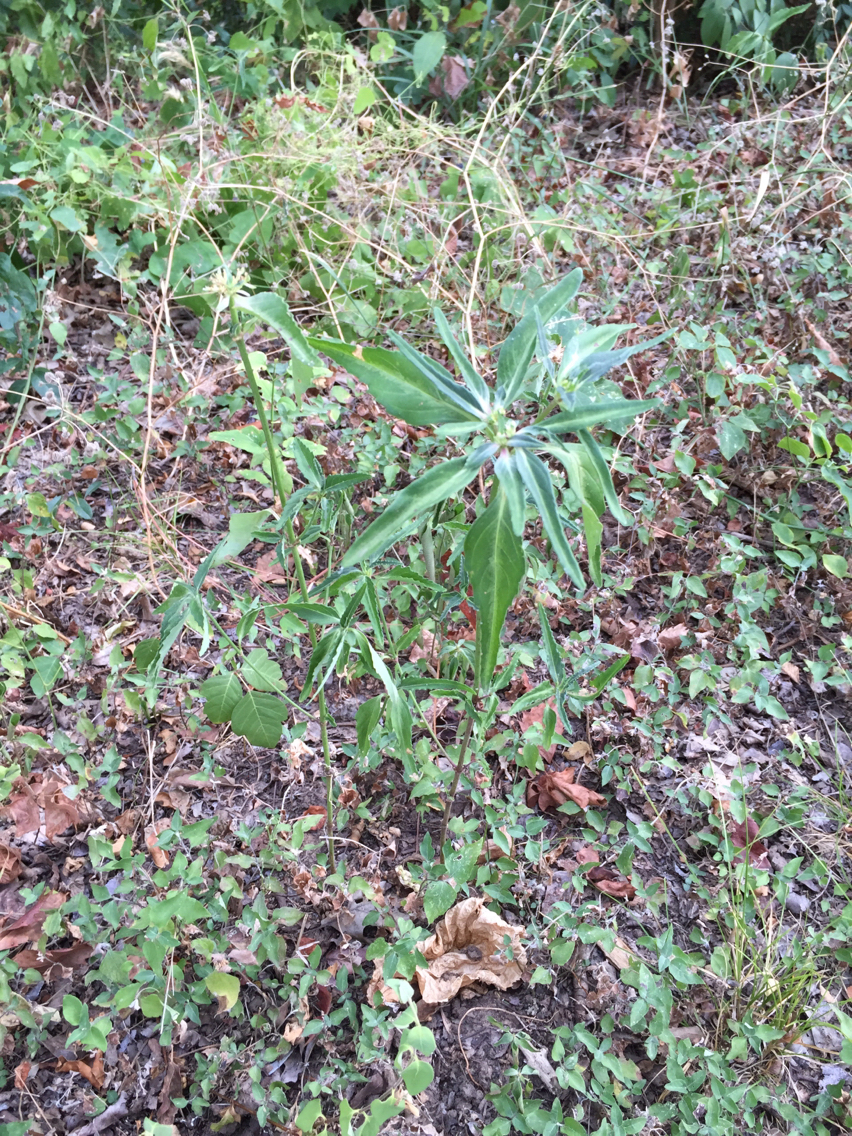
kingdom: Plantae
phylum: Tracheophyta
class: Magnoliopsida
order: Malpighiales
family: Euphorbiaceae
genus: Euphorbia
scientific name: Euphorbia dentata
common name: Dentate spurge
